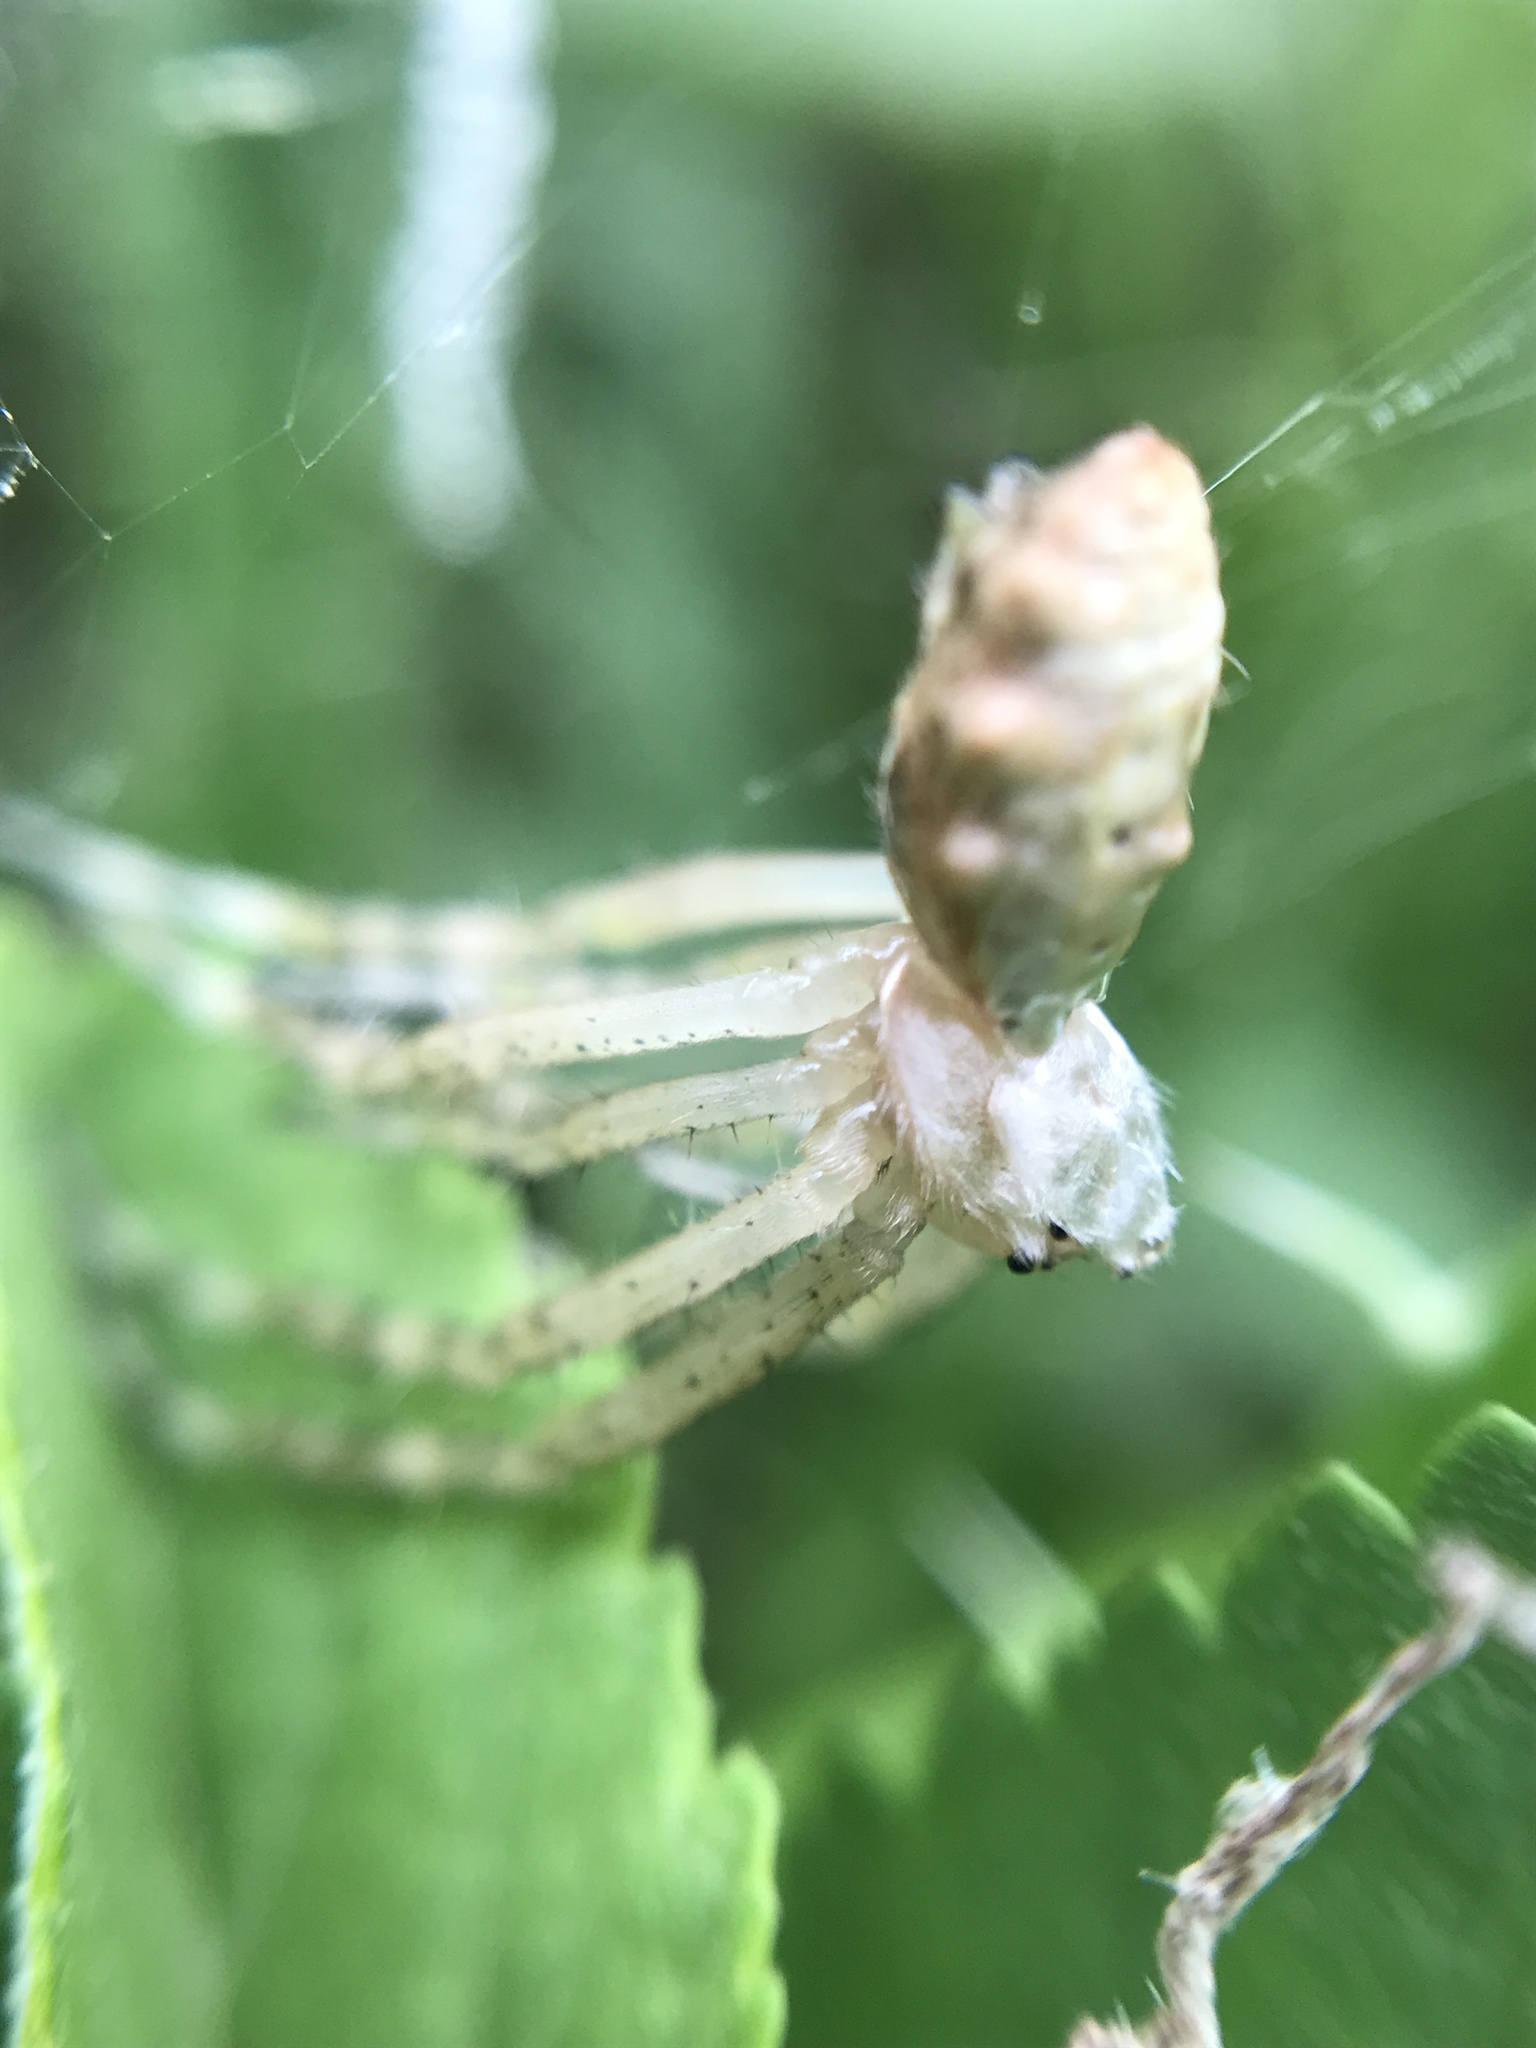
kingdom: Animalia
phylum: Arthropoda
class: Arachnida
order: Araneae
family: Araneidae
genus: Argiope
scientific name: Argiope argentata
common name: Orb weavers
